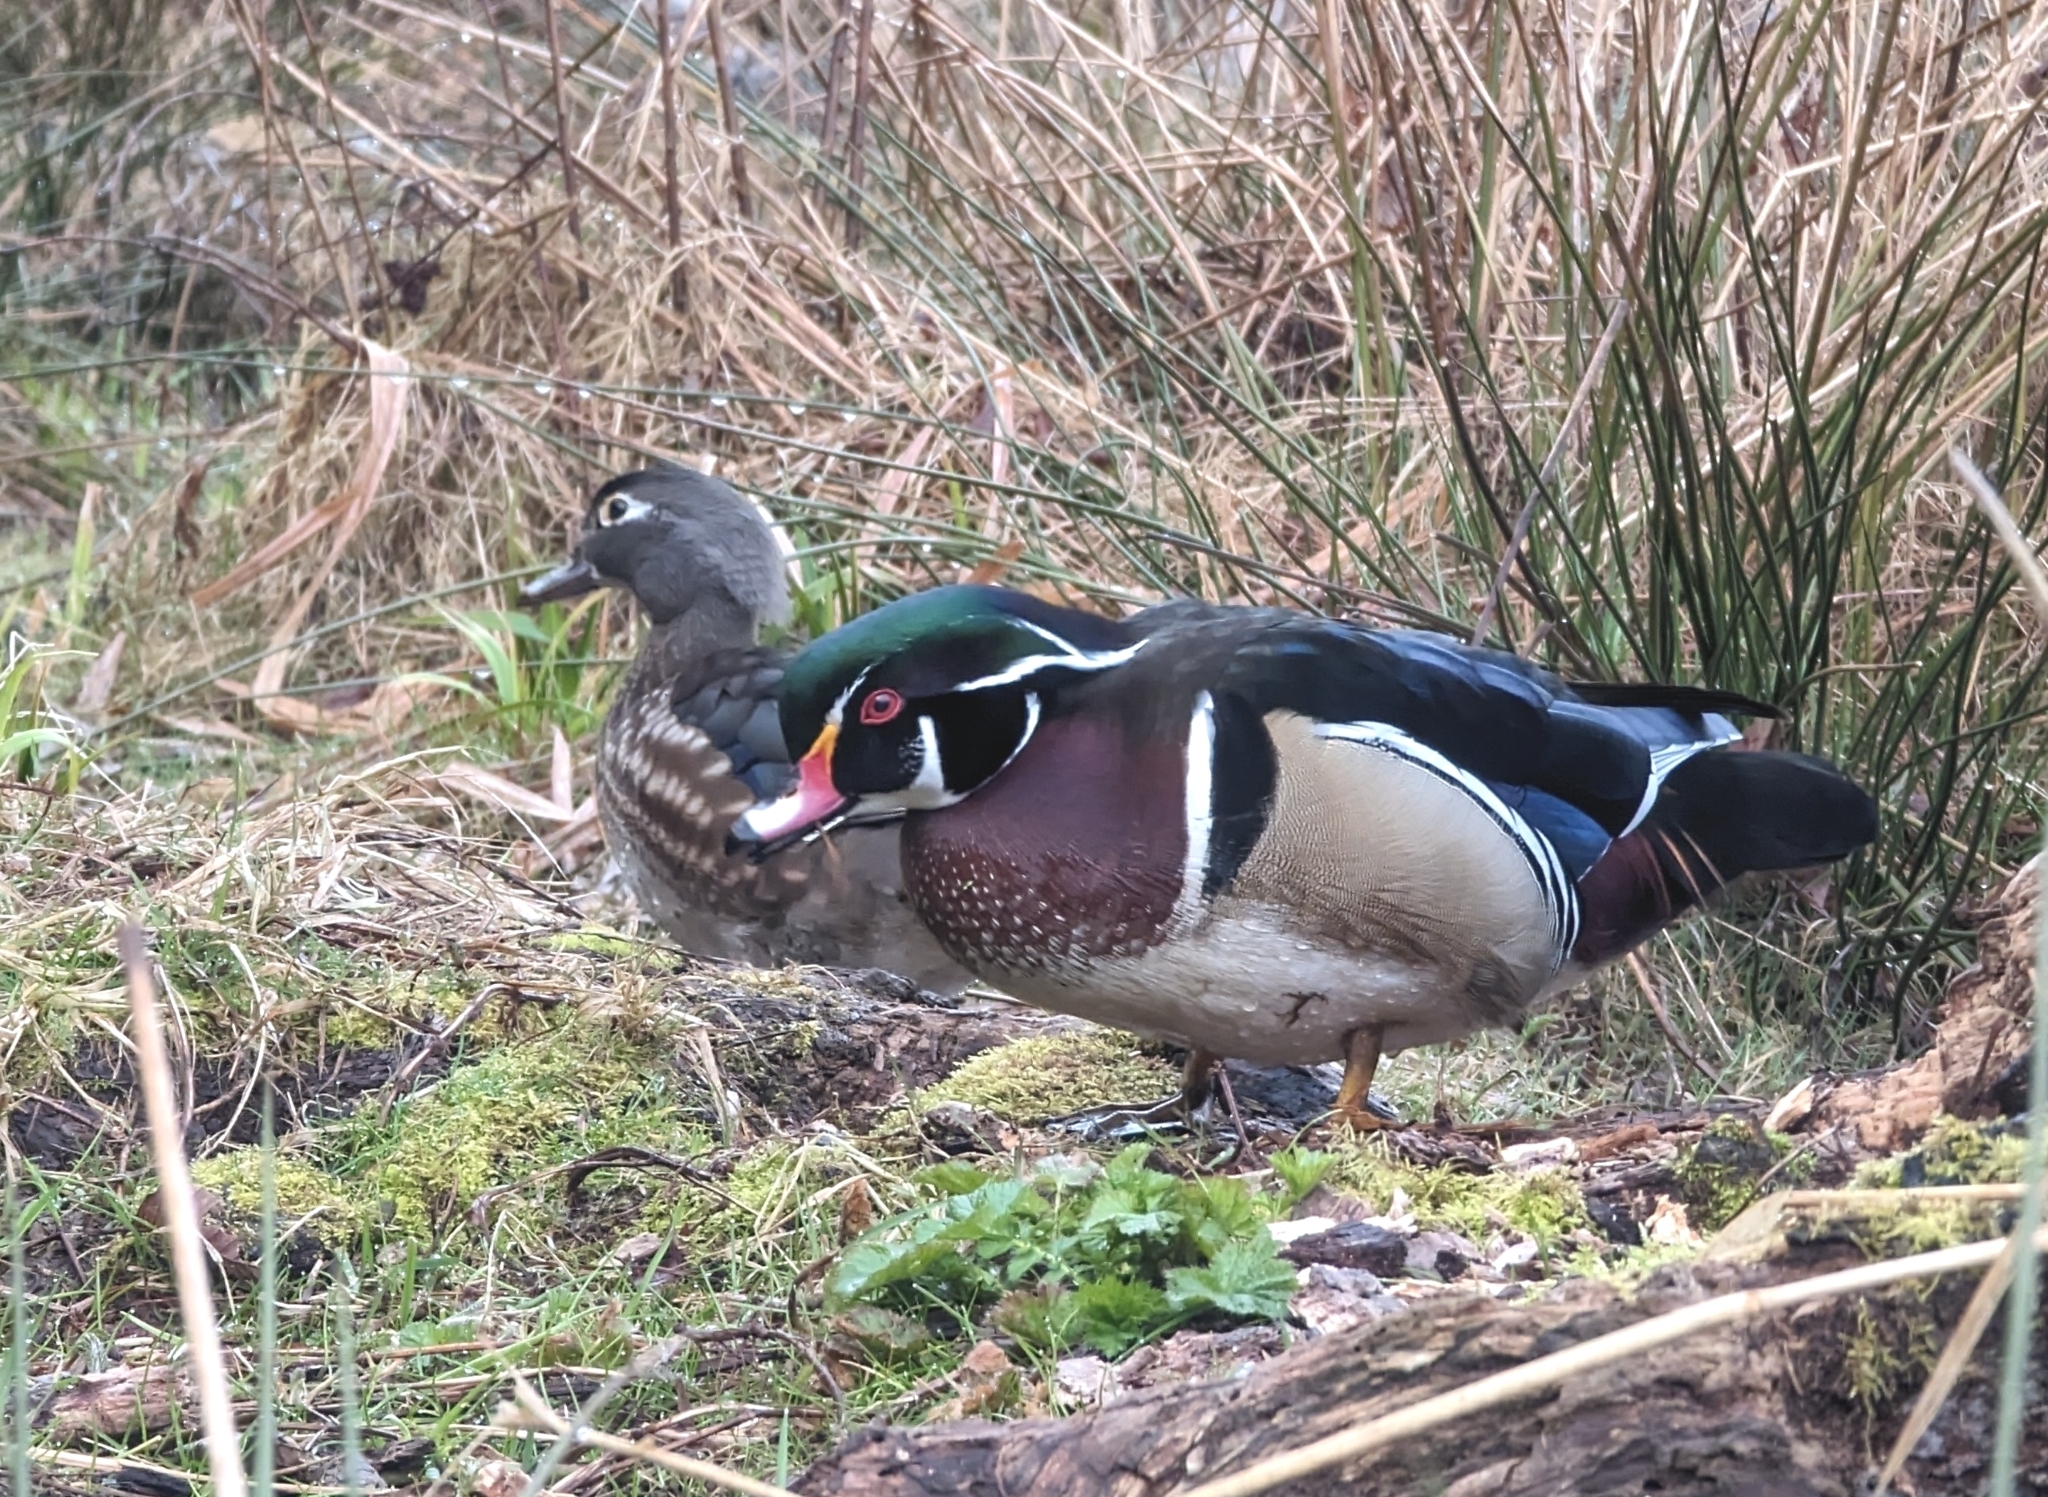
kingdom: Animalia
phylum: Chordata
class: Aves
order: Anseriformes
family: Anatidae
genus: Aix
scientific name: Aix sponsa
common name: Wood duck
